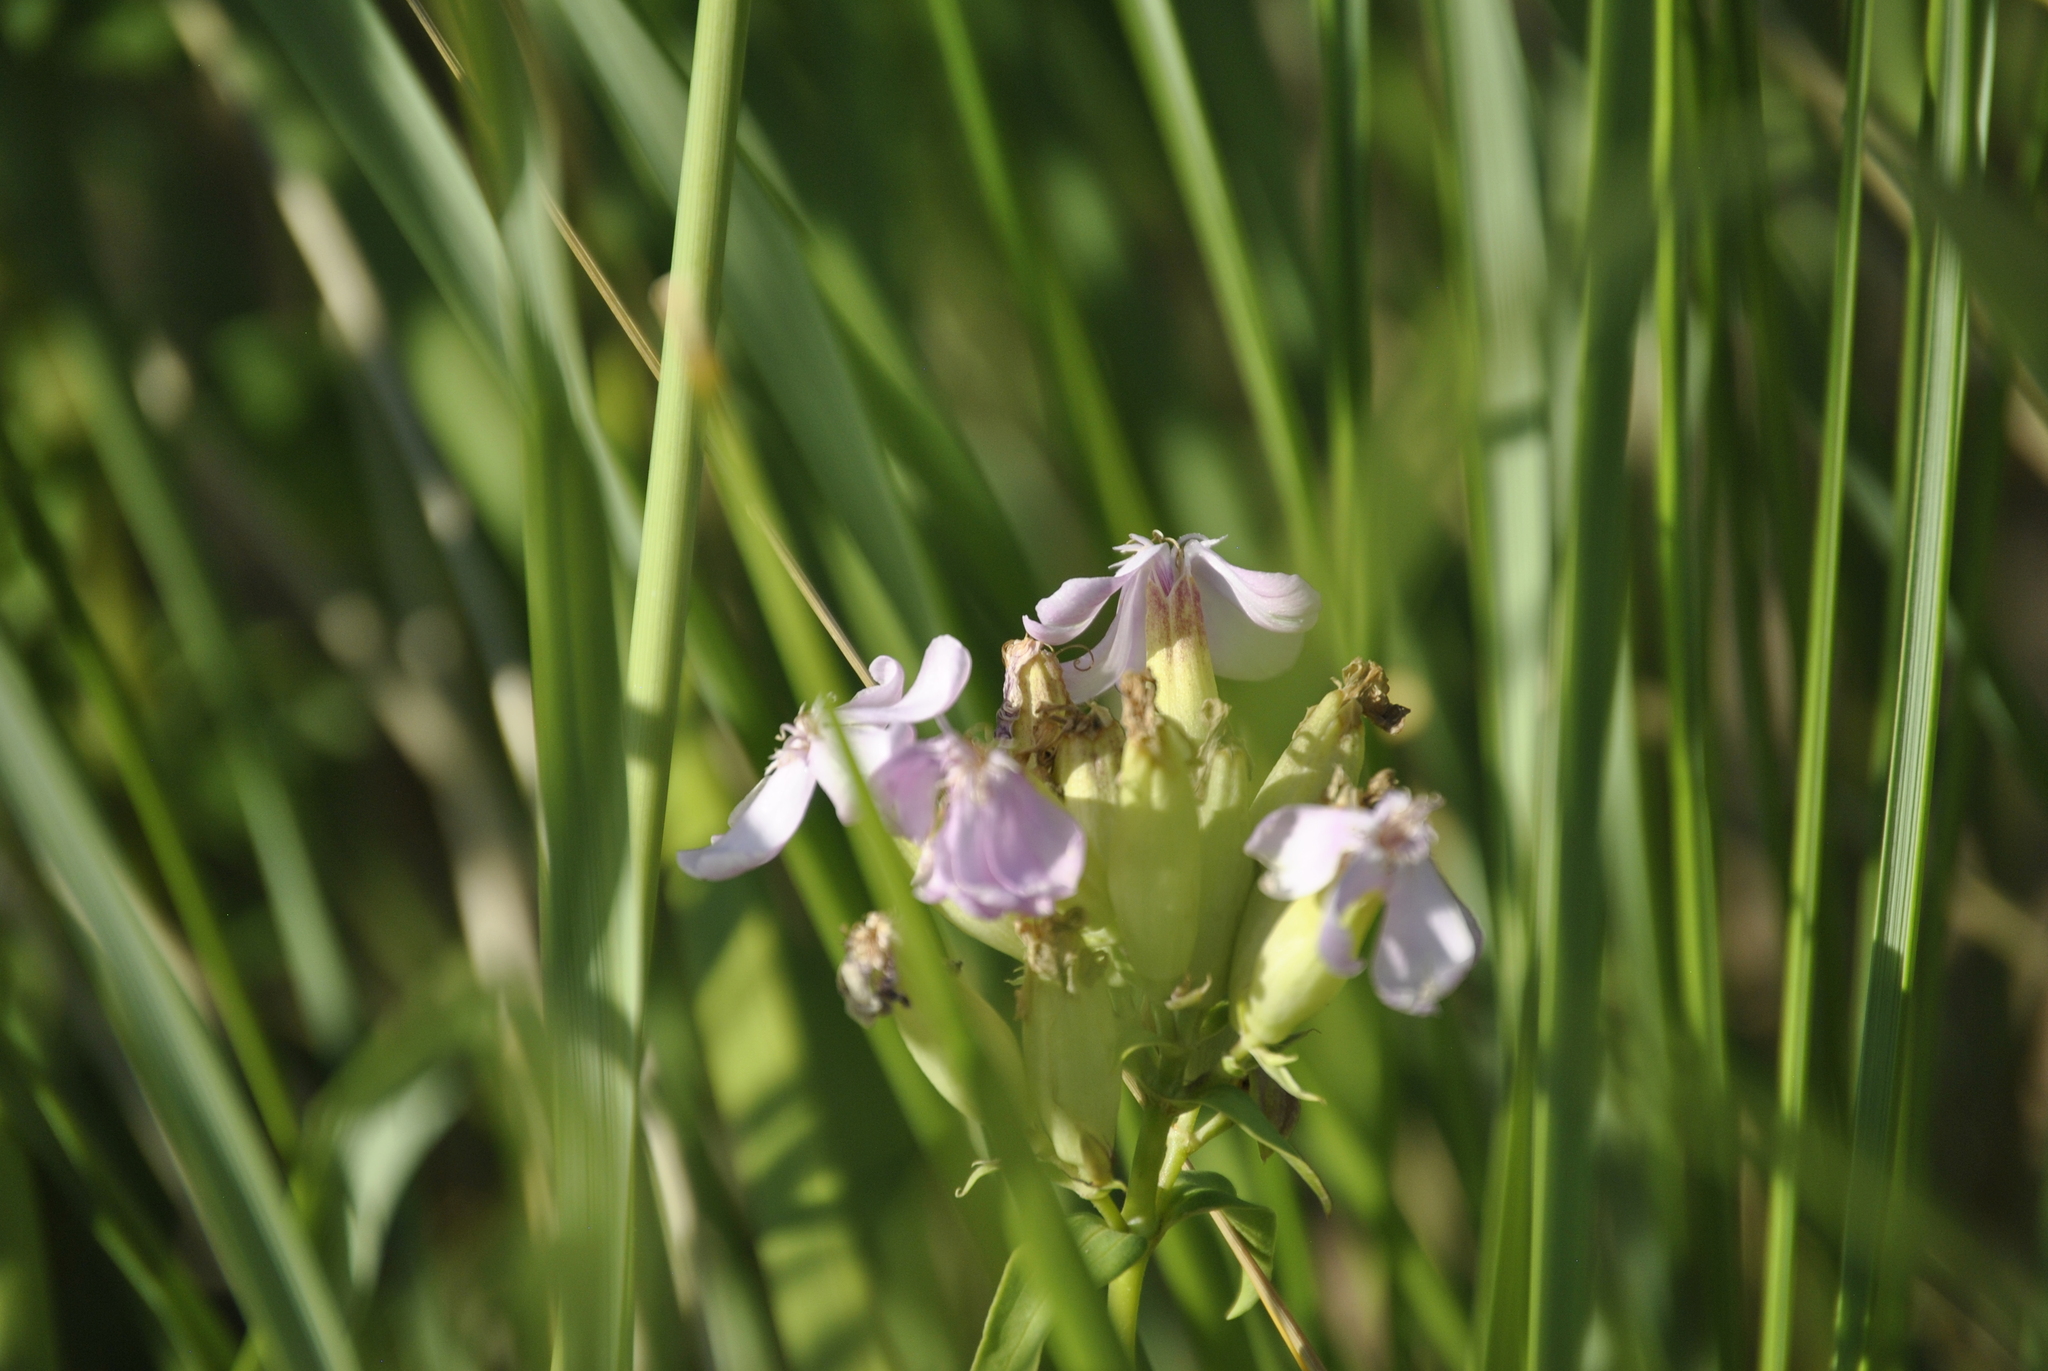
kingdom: Plantae
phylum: Tracheophyta
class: Magnoliopsida
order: Caryophyllales
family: Caryophyllaceae
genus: Saponaria
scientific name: Saponaria officinalis
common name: Soapwort
